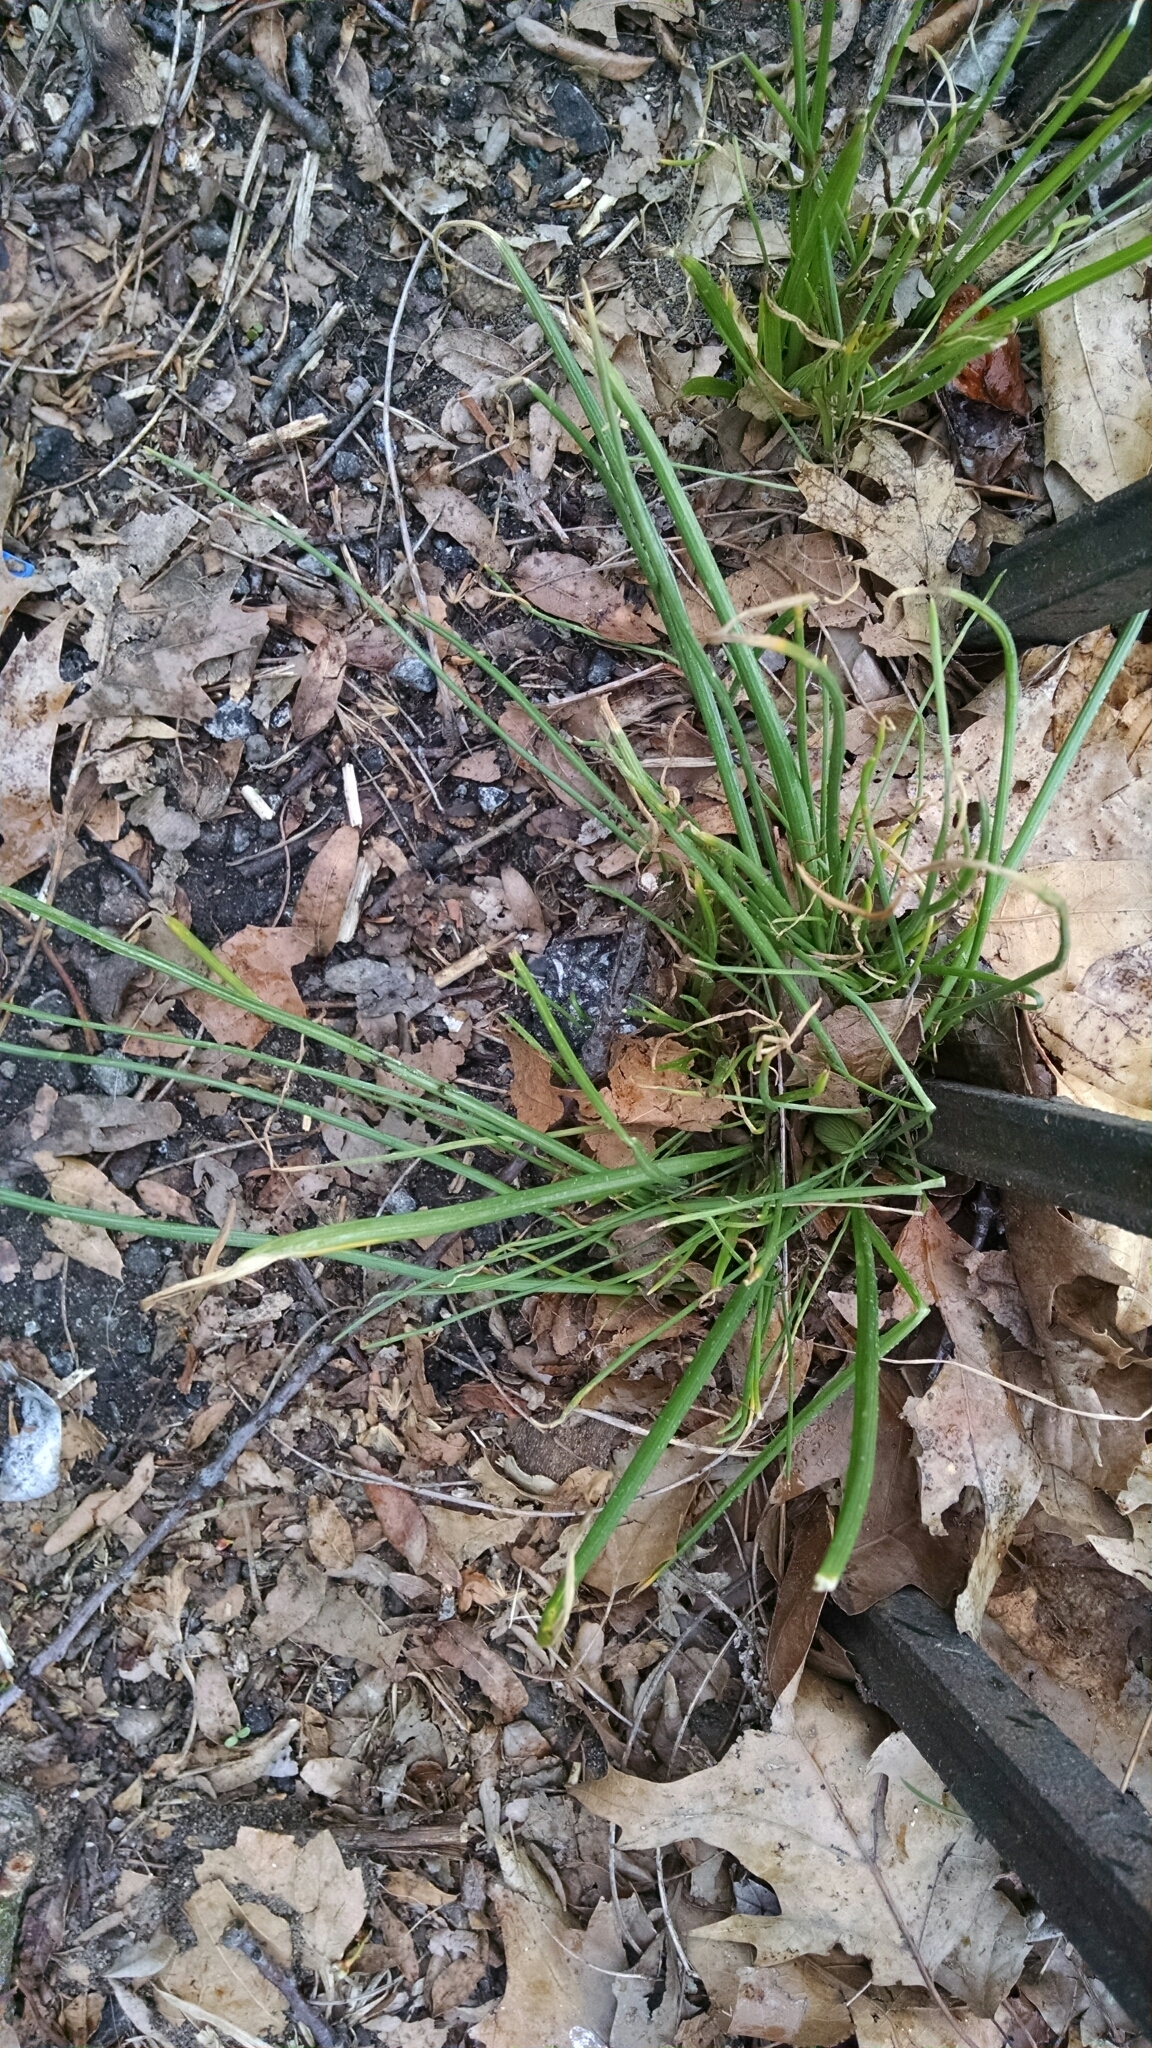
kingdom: Plantae
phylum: Tracheophyta
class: Liliopsida
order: Asparagales
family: Amaryllidaceae
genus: Allium
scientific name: Allium vineale
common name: Crow garlic
